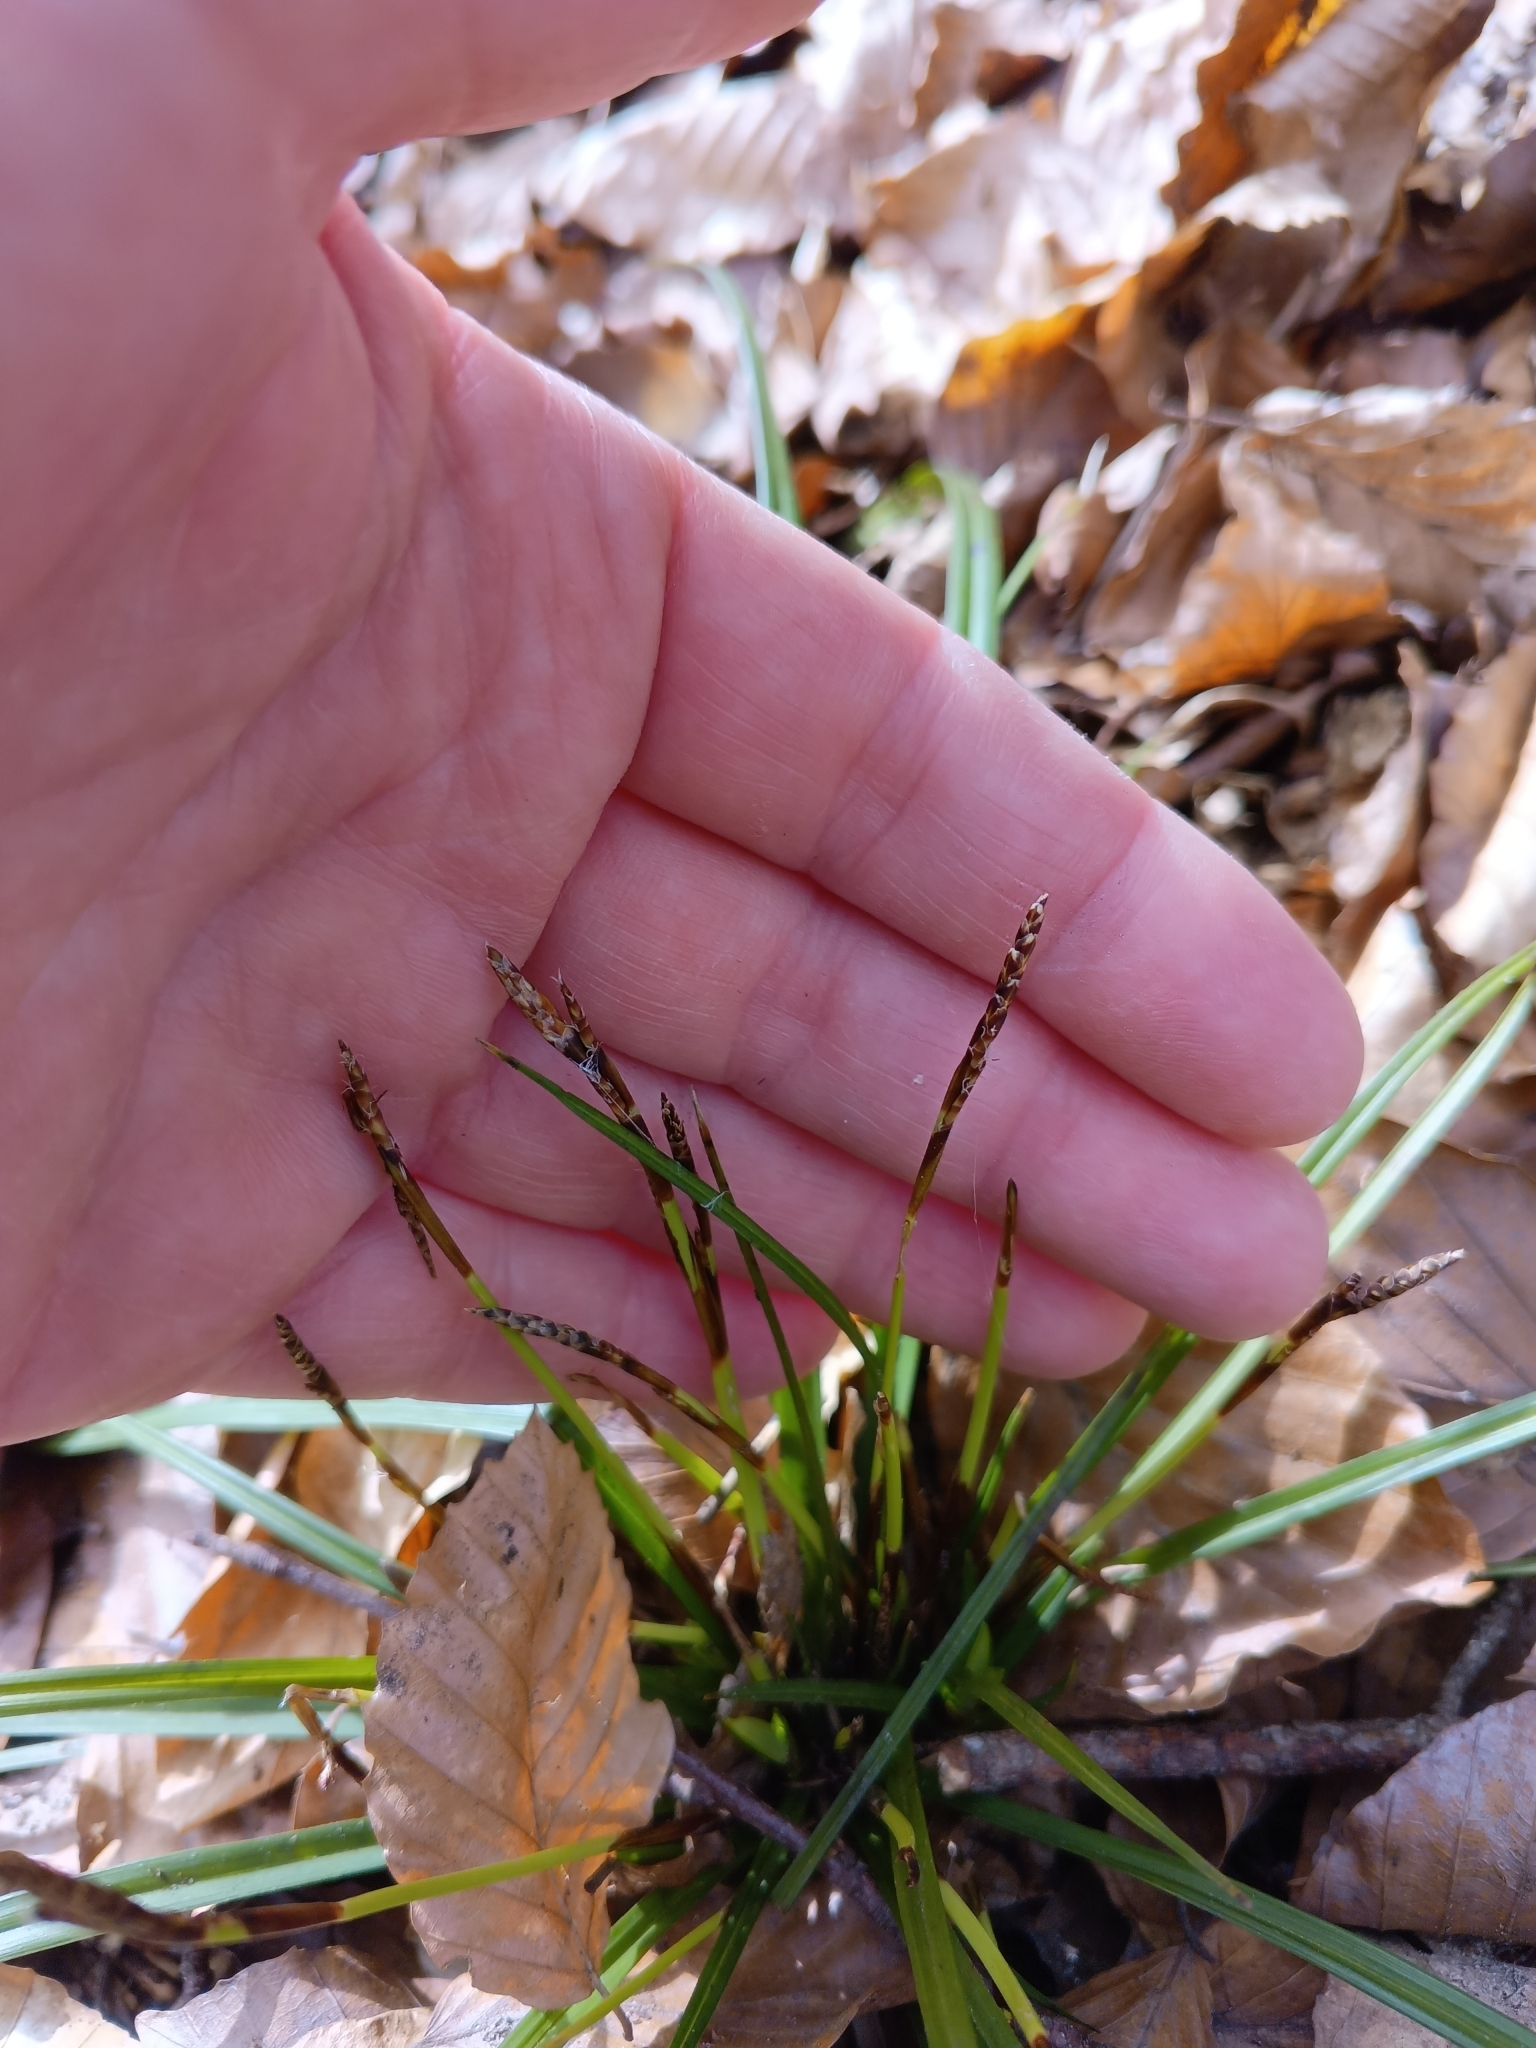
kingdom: Plantae
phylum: Tracheophyta
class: Liliopsida
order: Poales
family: Cyperaceae
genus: Carex
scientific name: Carex digitata
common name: Fingered sedge
